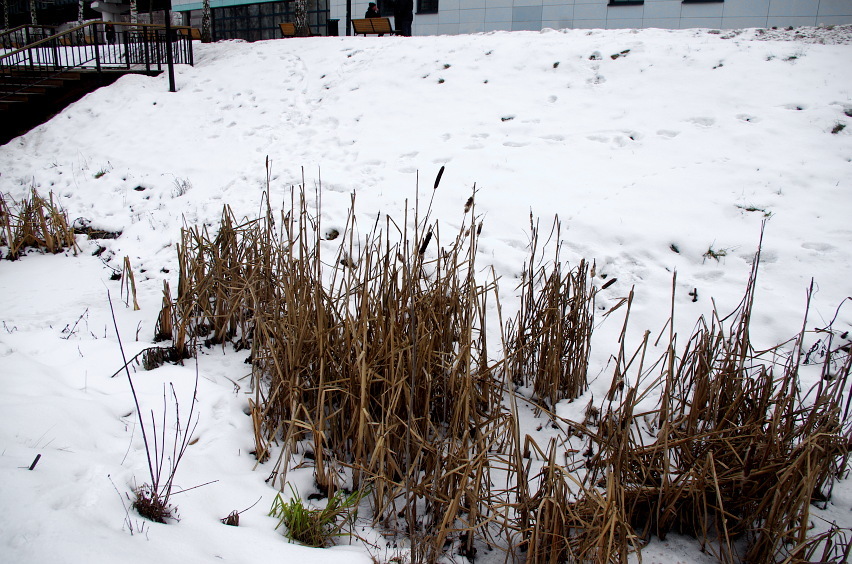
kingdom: Plantae
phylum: Tracheophyta
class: Liliopsida
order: Poales
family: Typhaceae
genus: Typha
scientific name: Typha latifolia
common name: Broadleaf cattail
